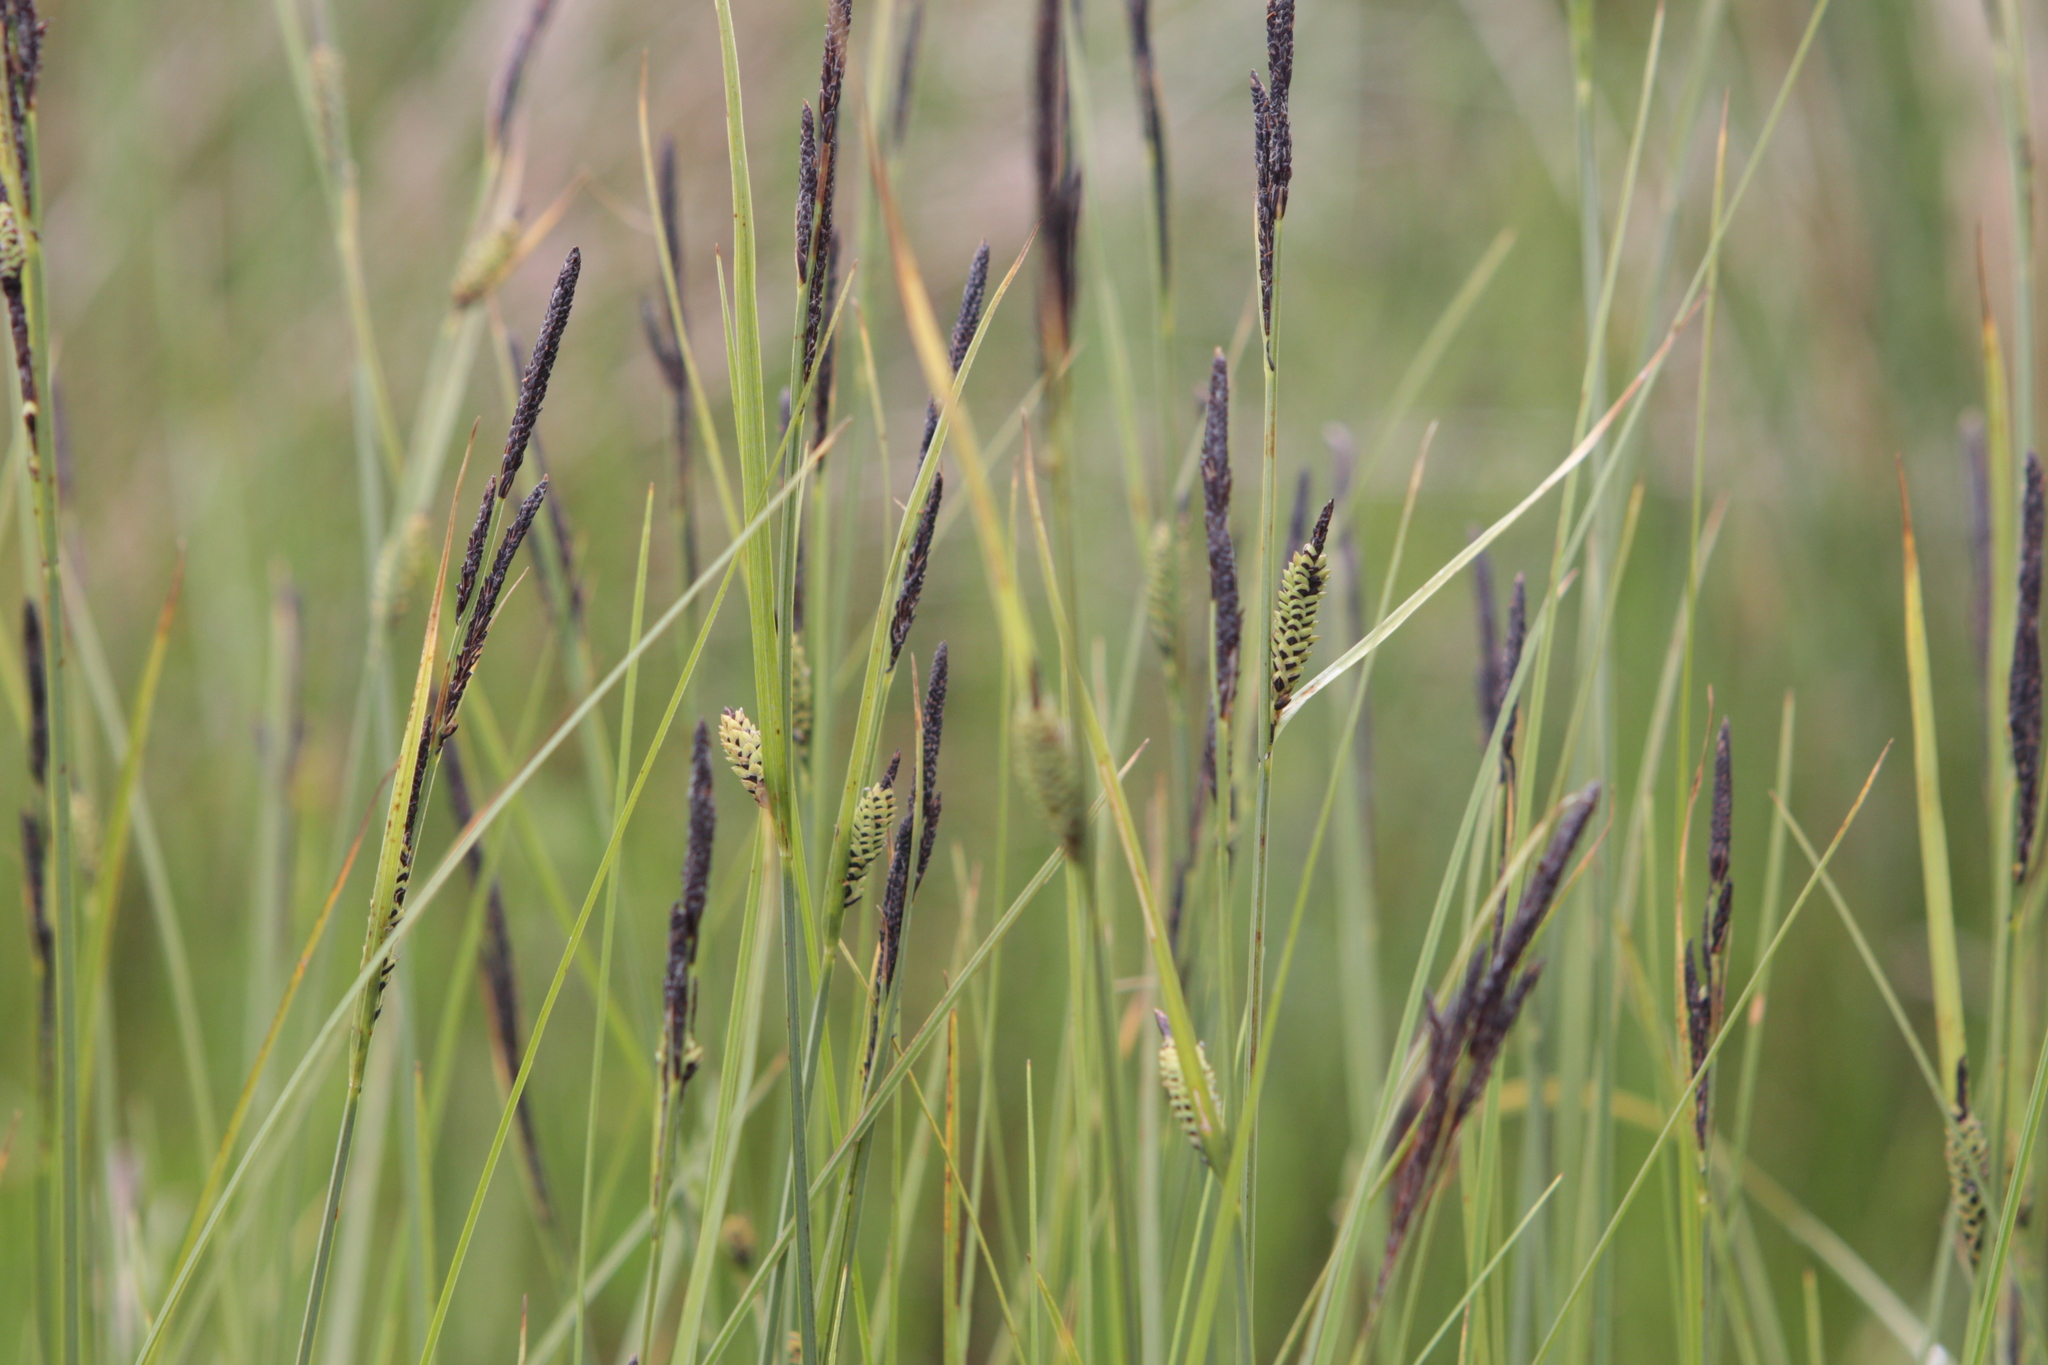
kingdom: Plantae
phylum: Tracheophyta
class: Liliopsida
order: Poales
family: Cyperaceae
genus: Carex
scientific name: Carex nigra
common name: Common sedge
